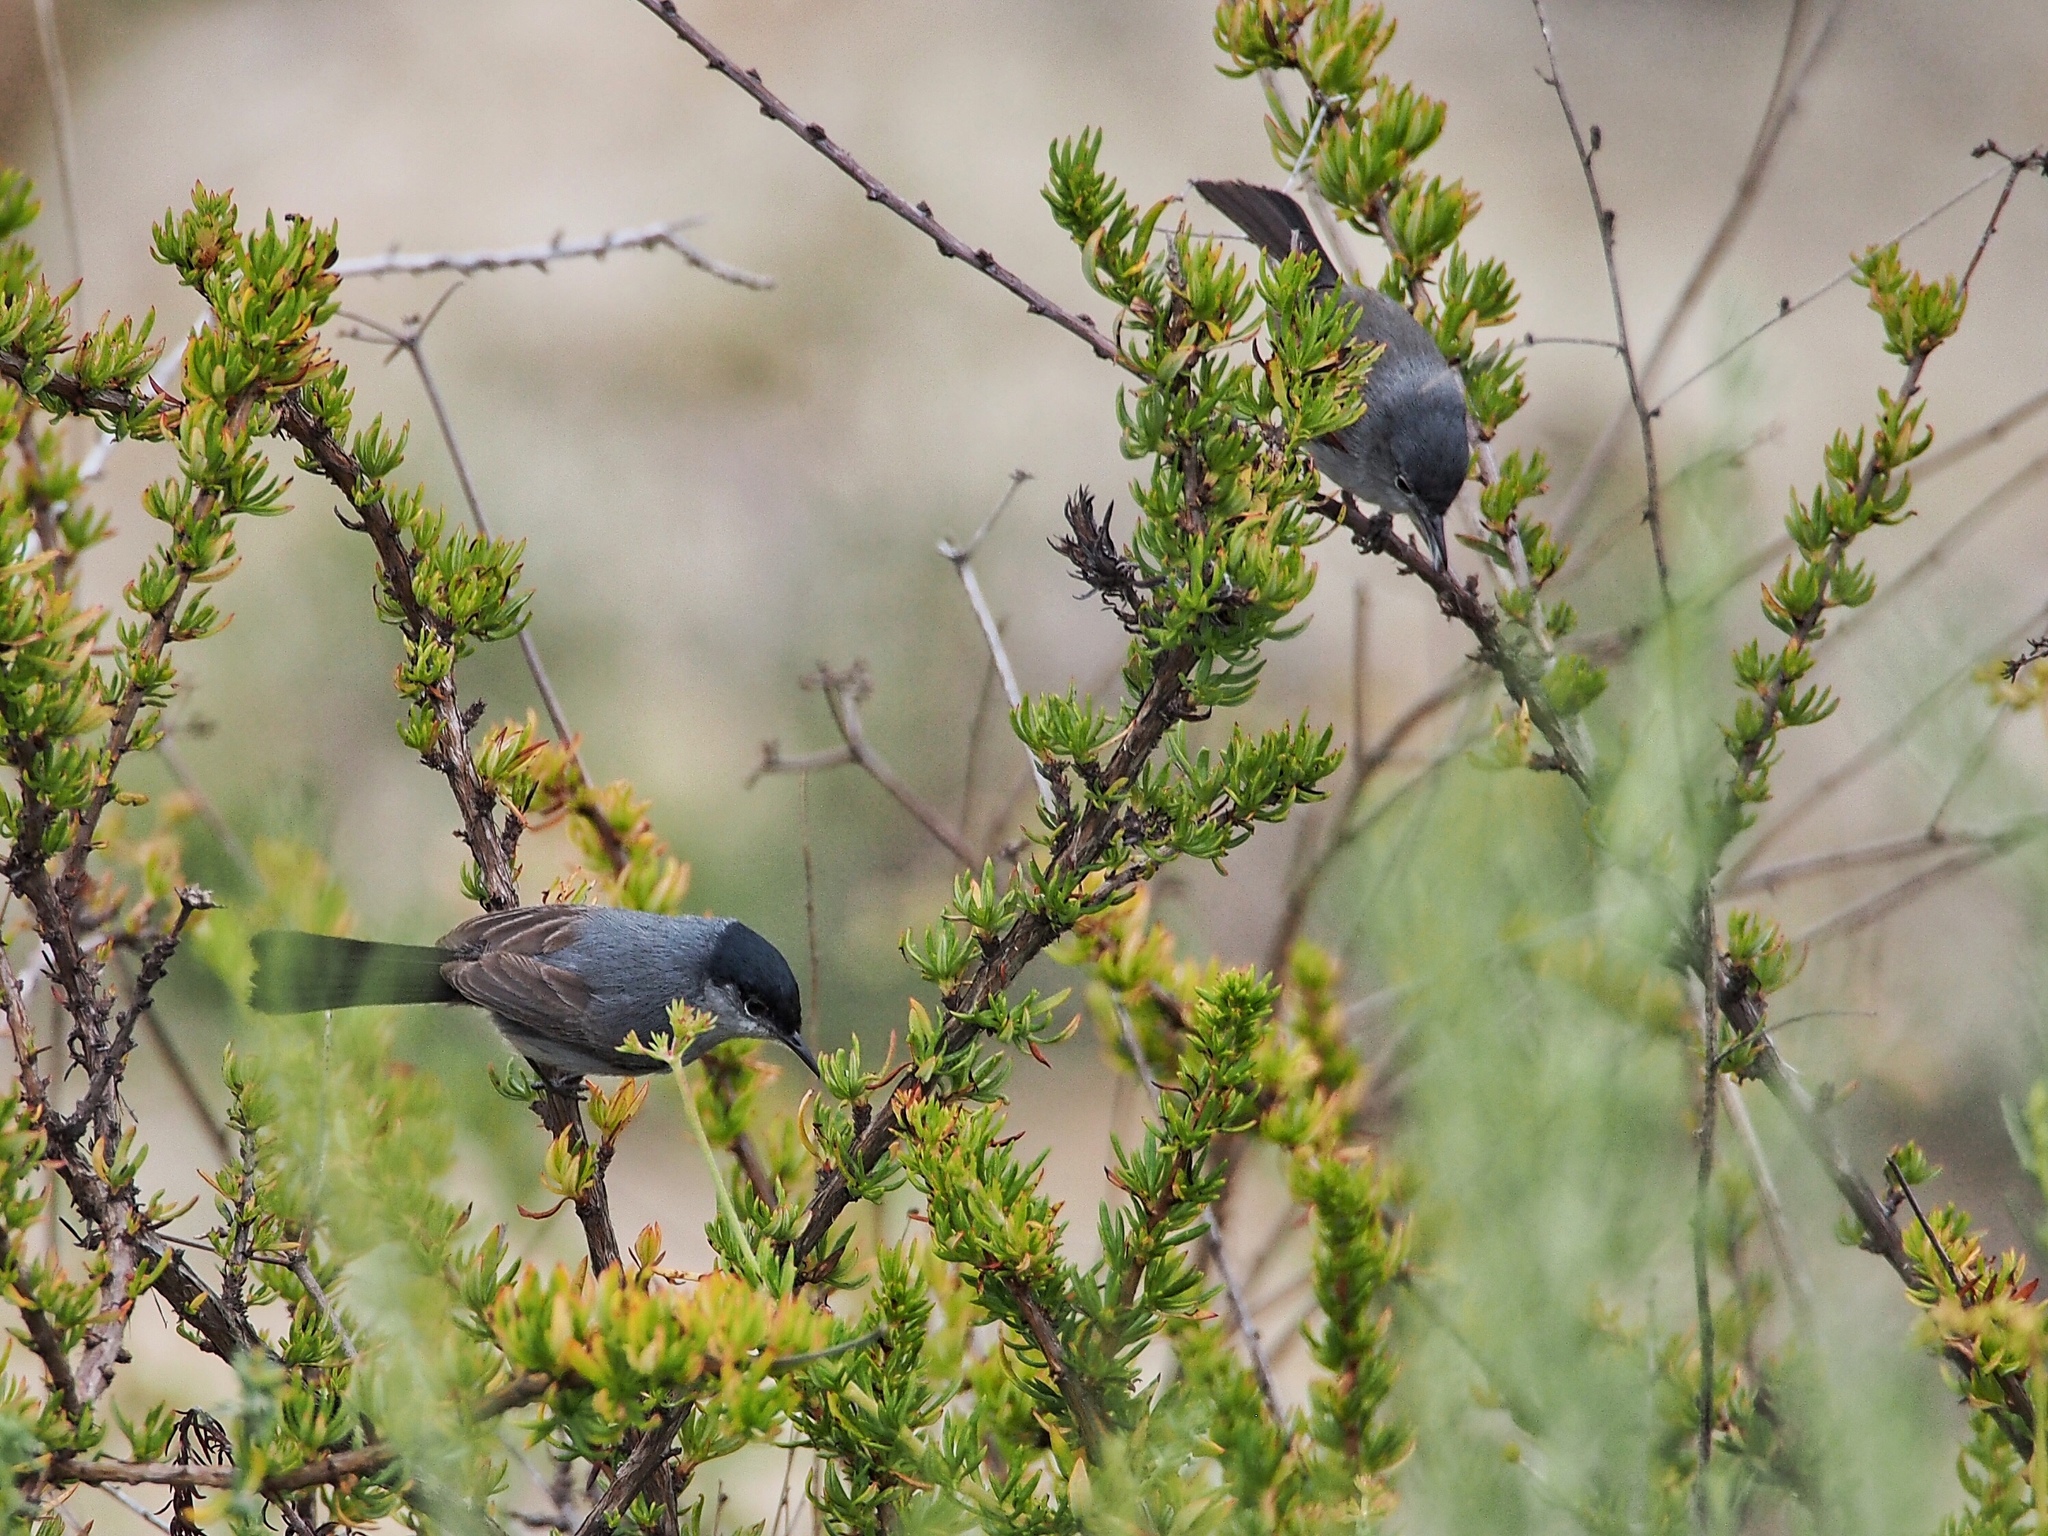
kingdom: Animalia
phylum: Chordata
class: Aves
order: Passeriformes
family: Polioptilidae
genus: Polioptila
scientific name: Polioptila californica
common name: California gnatcatcher
